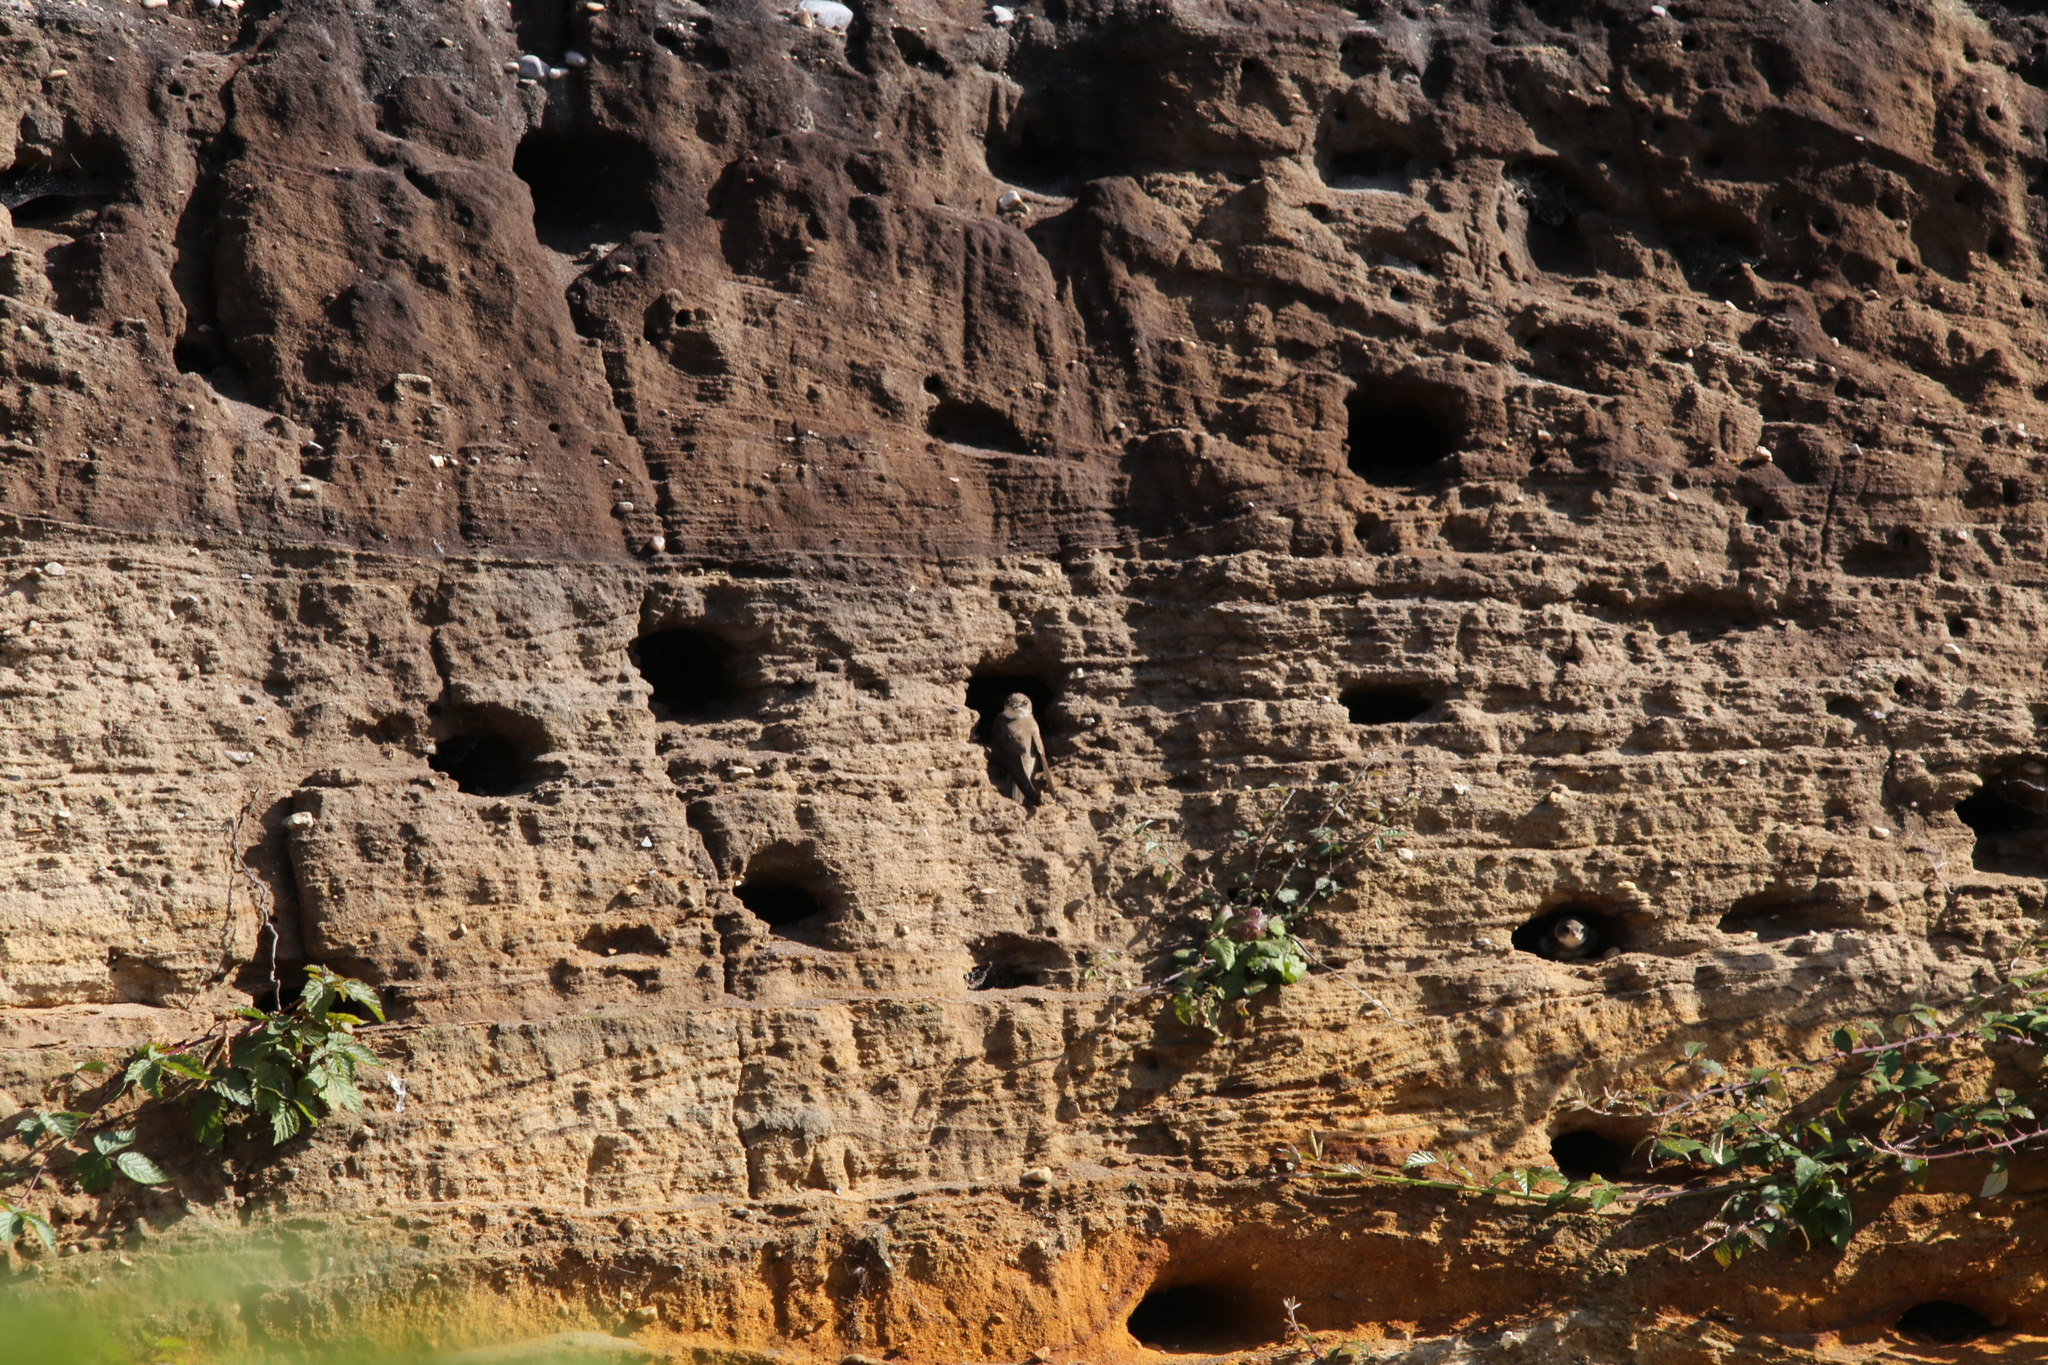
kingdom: Animalia
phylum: Chordata
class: Aves
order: Passeriformes
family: Hirundinidae
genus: Riparia
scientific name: Riparia riparia
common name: Sand martin
